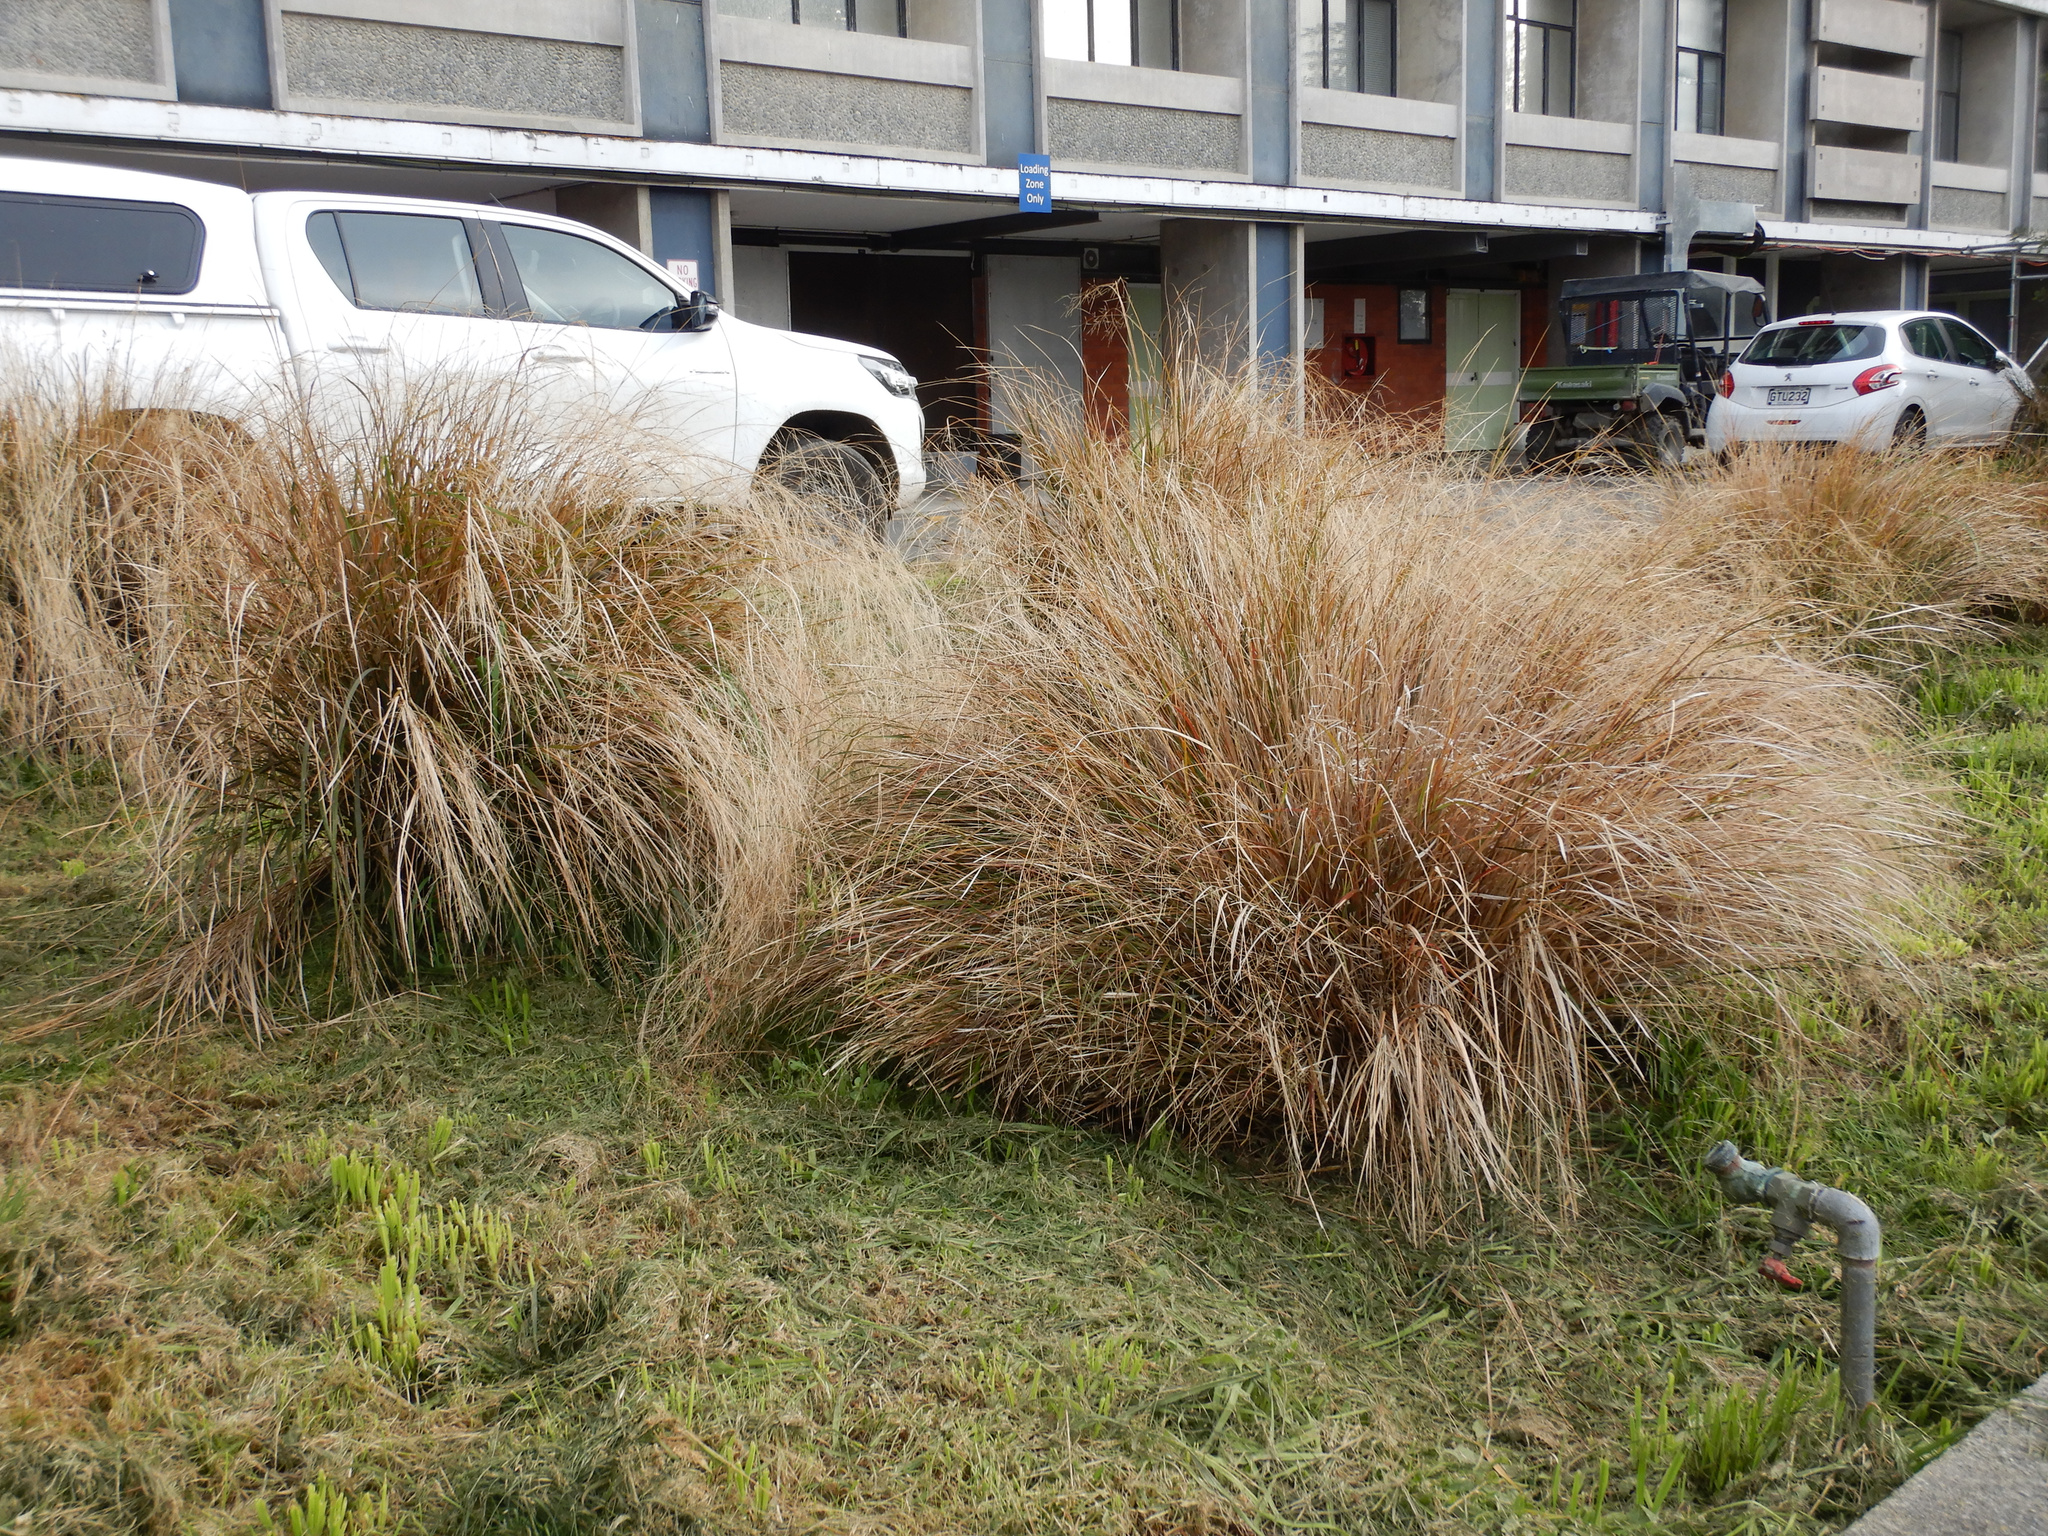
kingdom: Plantae
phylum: Tracheophyta
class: Liliopsida
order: Poales
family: Poaceae
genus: Anemanthele
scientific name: Anemanthele lessoniana
